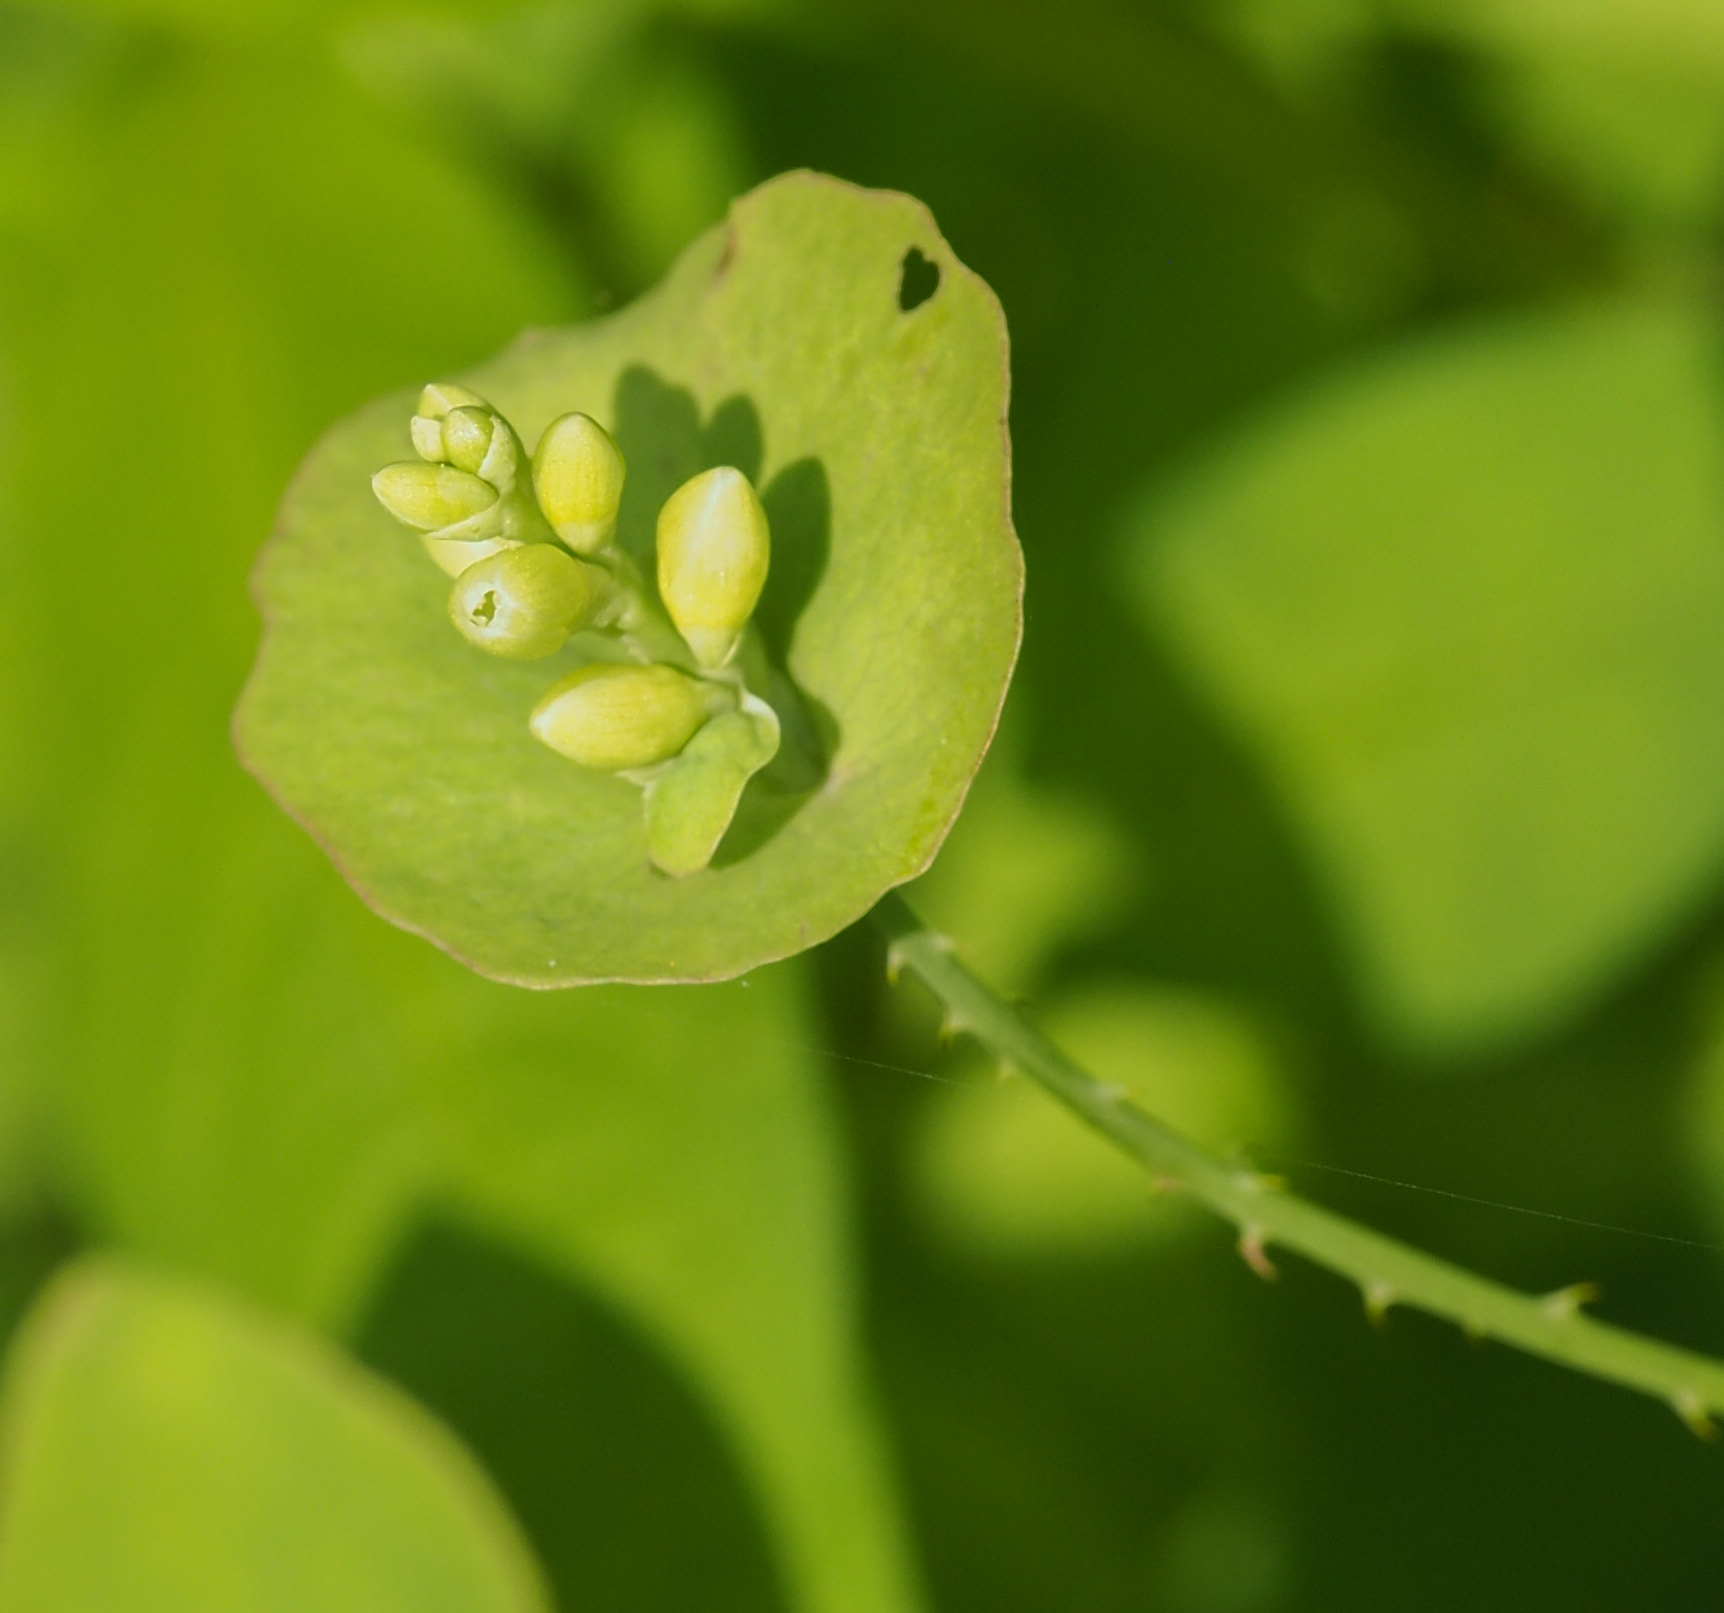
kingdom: Plantae
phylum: Tracheophyta
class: Magnoliopsida
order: Caryophyllales
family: Polygonaceae
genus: Persicaria
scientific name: Persicaria perfoliata
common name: Asiatic tearthumb
